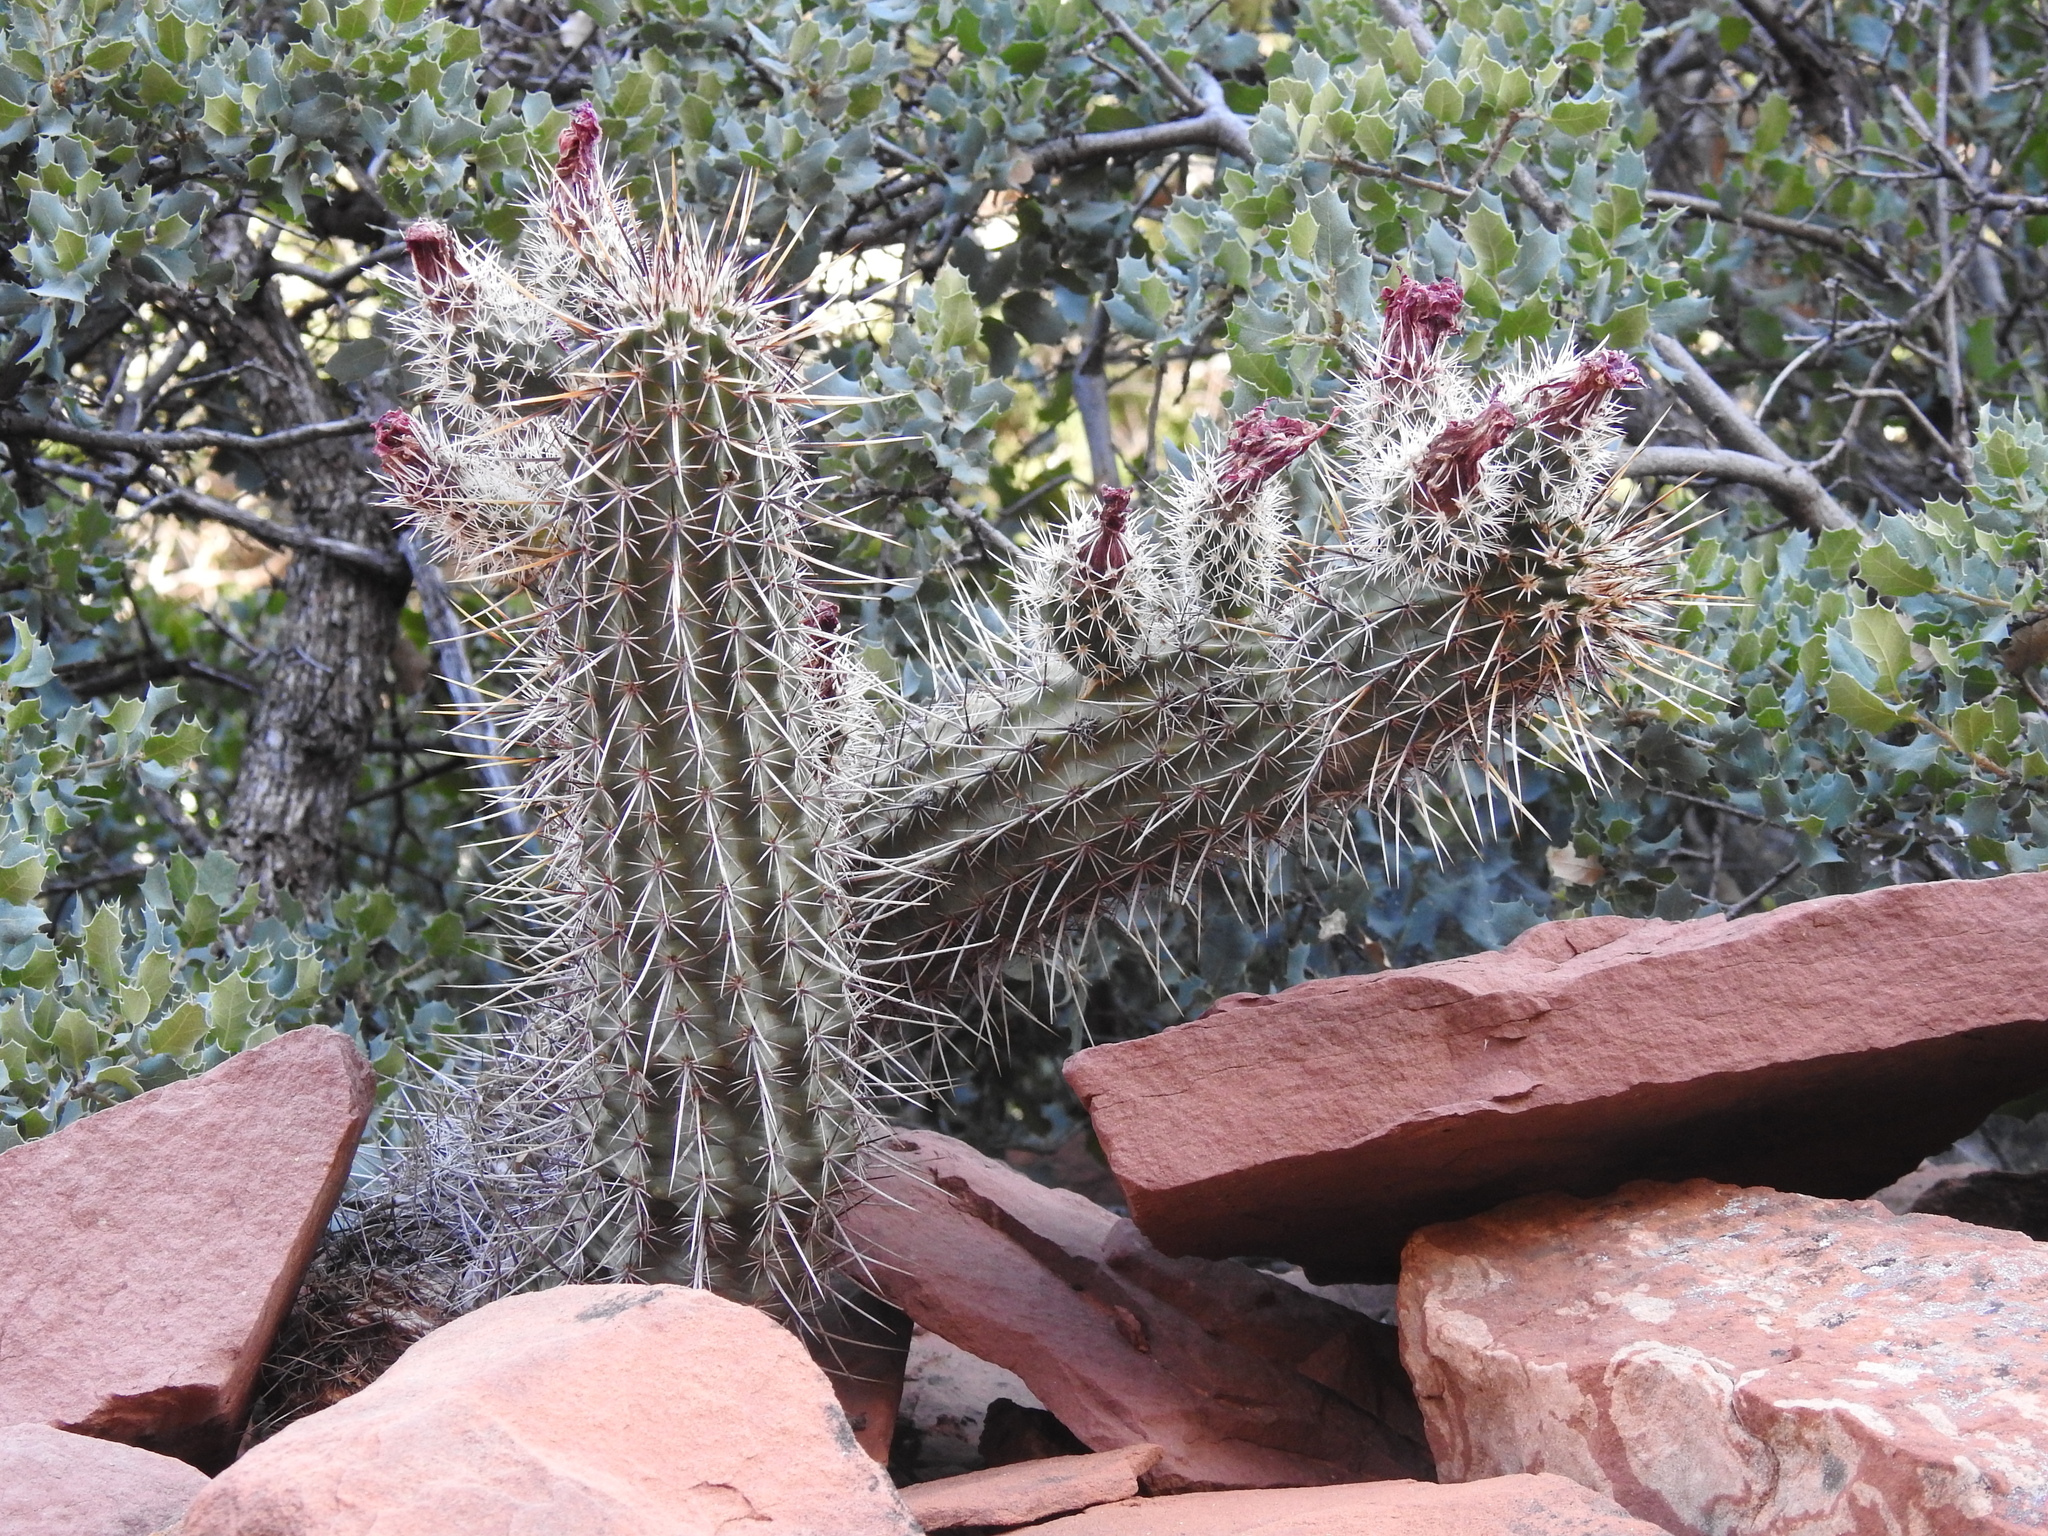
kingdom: Plantae
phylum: Tracheophyta
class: Magnoliopsida
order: Caryophyllales
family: Cactaceae
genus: Echinocereus
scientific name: Echinocereus fasciculatus
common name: Bundle hedgehog
